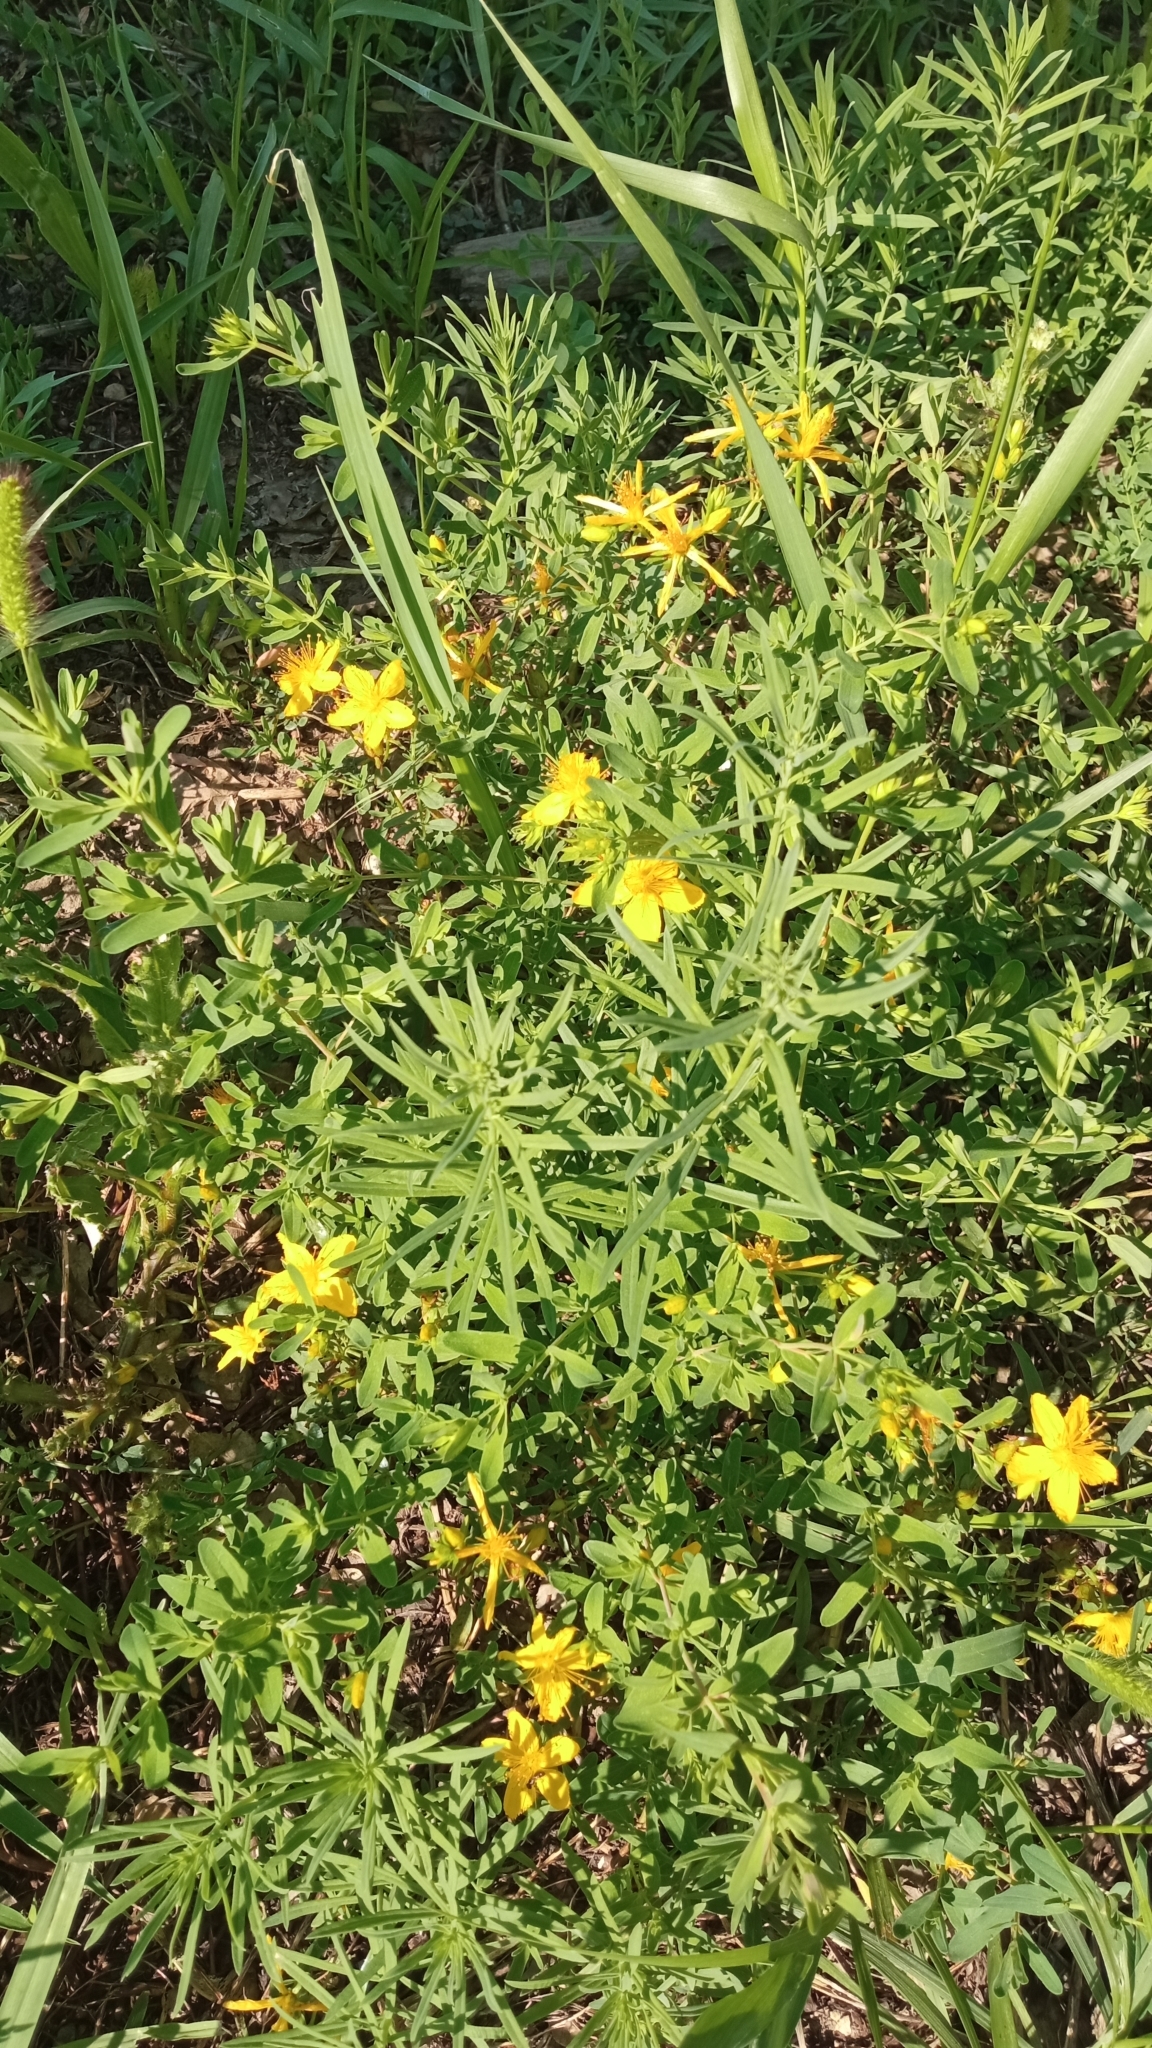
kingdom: Plantae
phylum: Tracheophyta
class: Magnoliopsida
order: Malpighiales
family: Hypericaceae
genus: Hypericum
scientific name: Hypericum perforatum
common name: Common st. johnswort
